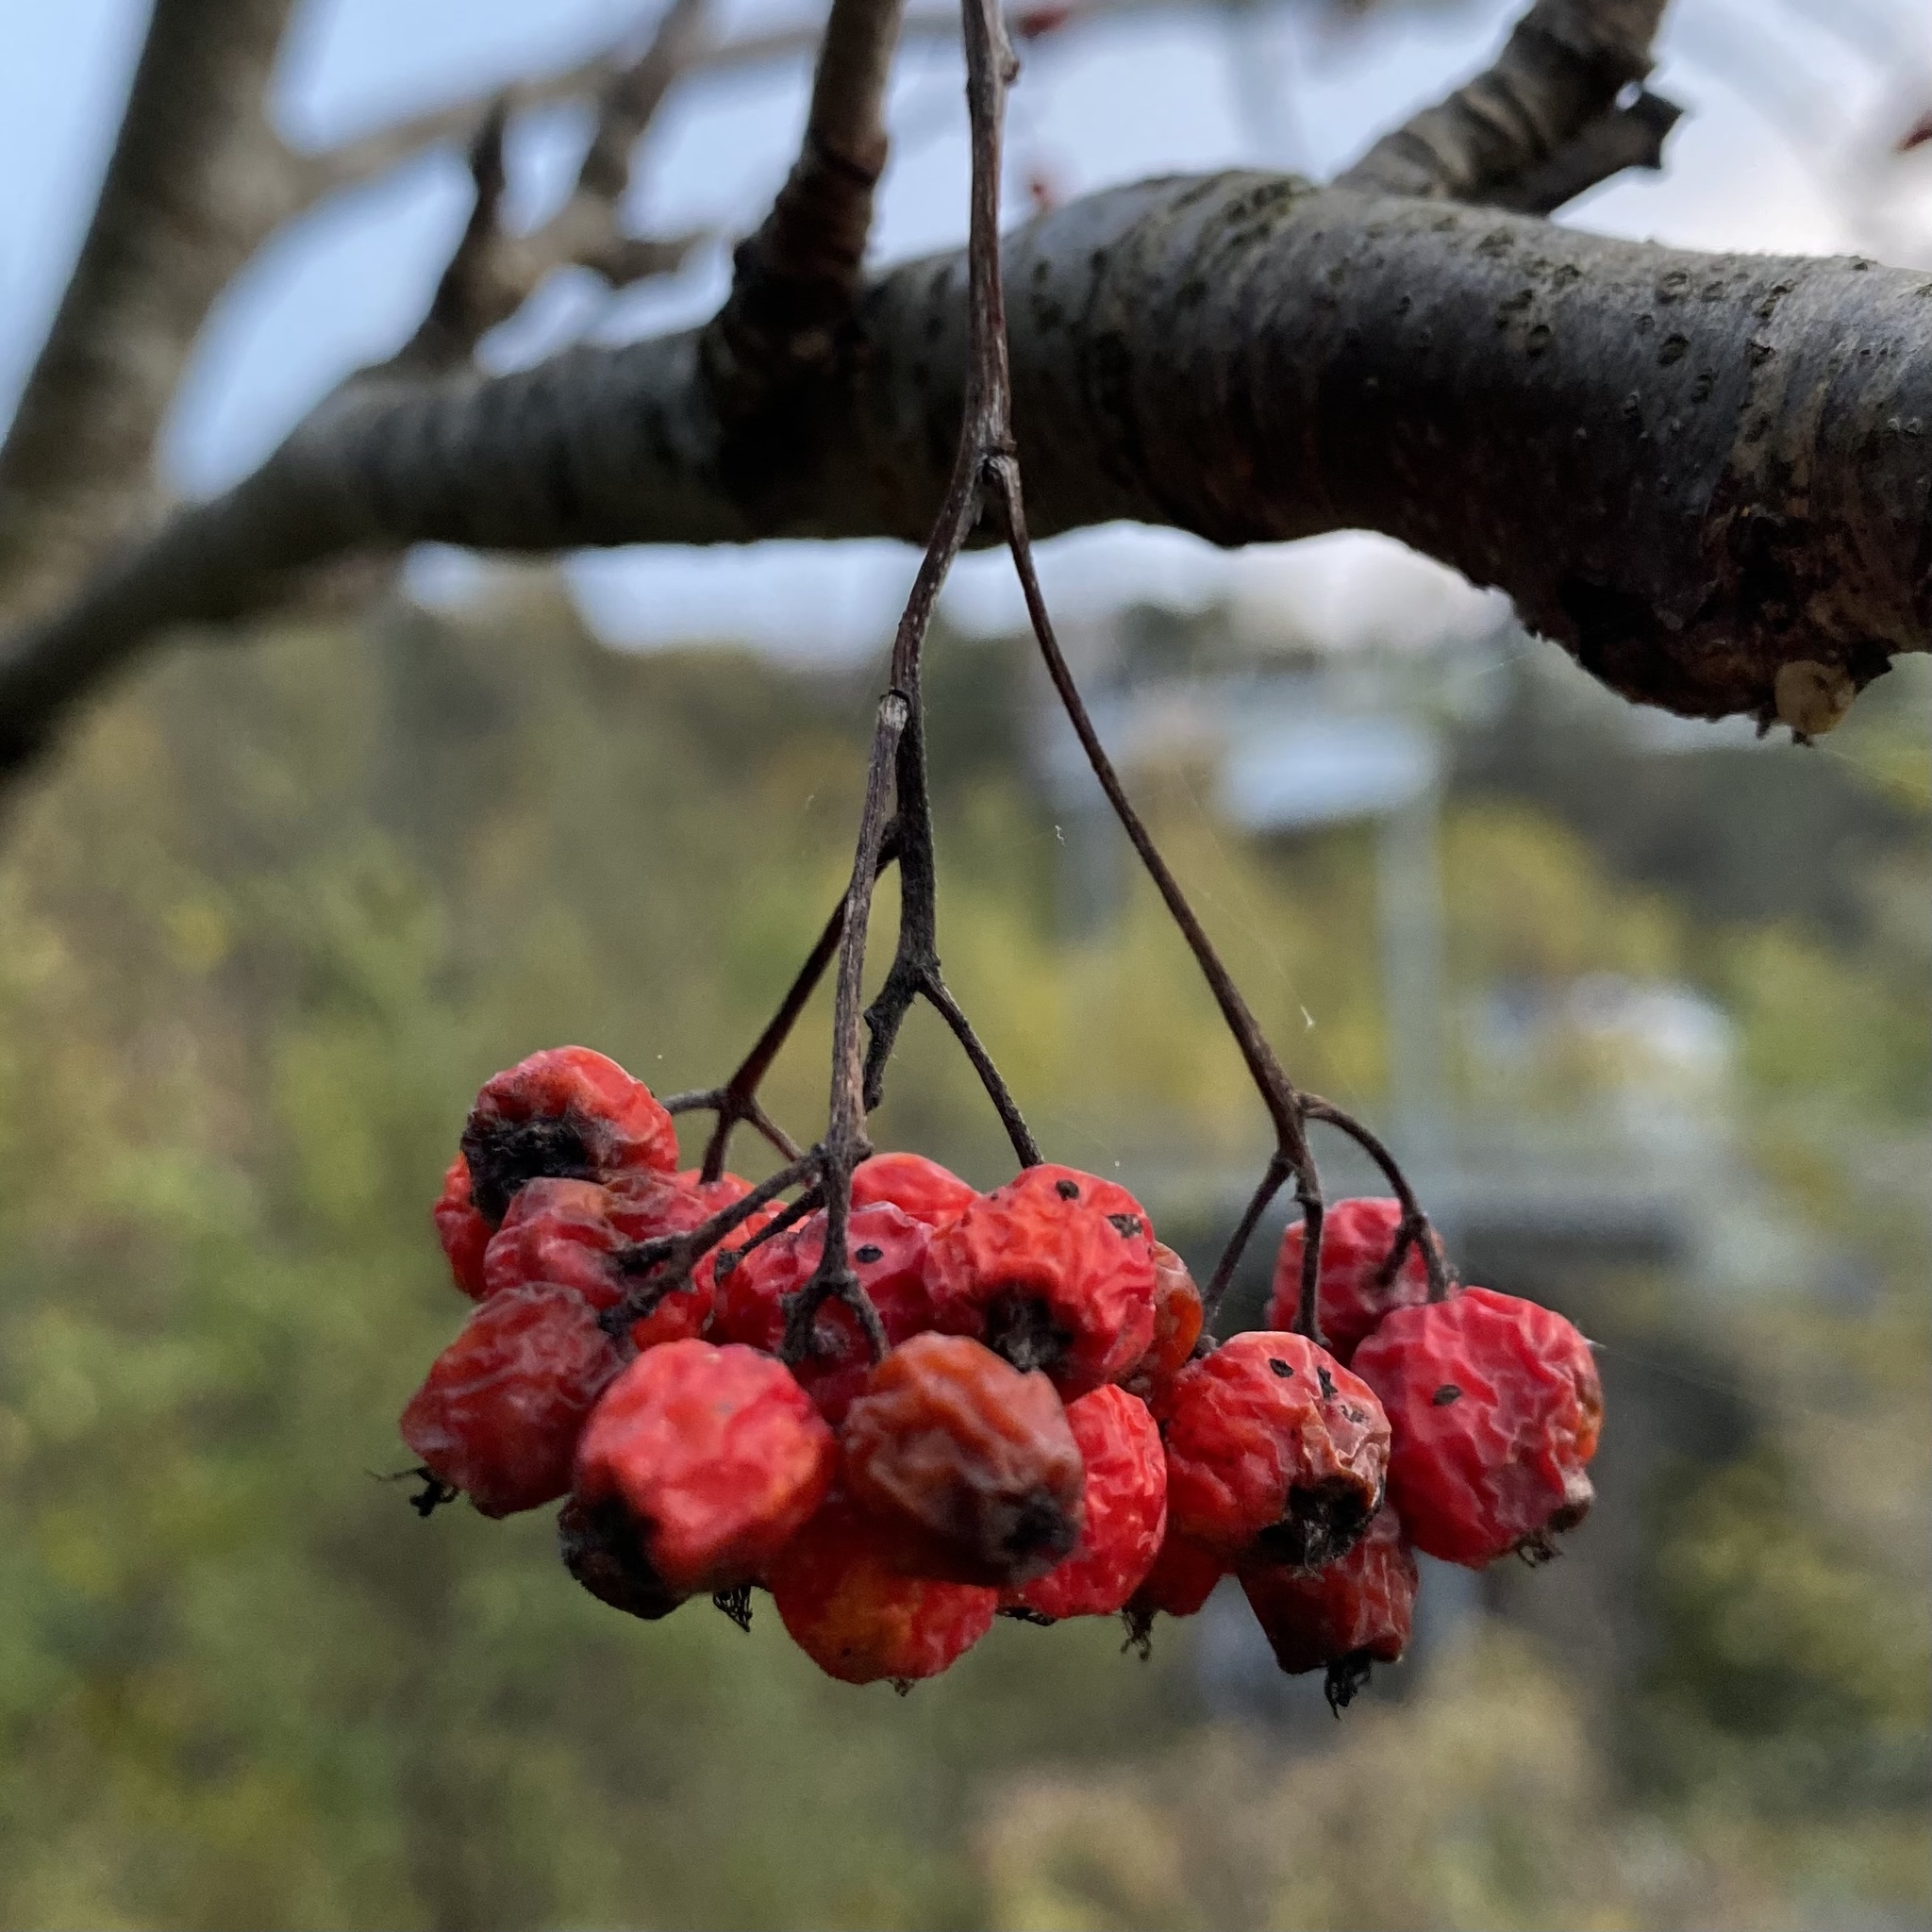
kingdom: Plantae
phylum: Tracheophyta
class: Magnoliopsida
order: Rosales
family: Rosaceae
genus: Sorbus
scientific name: Sorbus aucuparia
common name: Rowan
